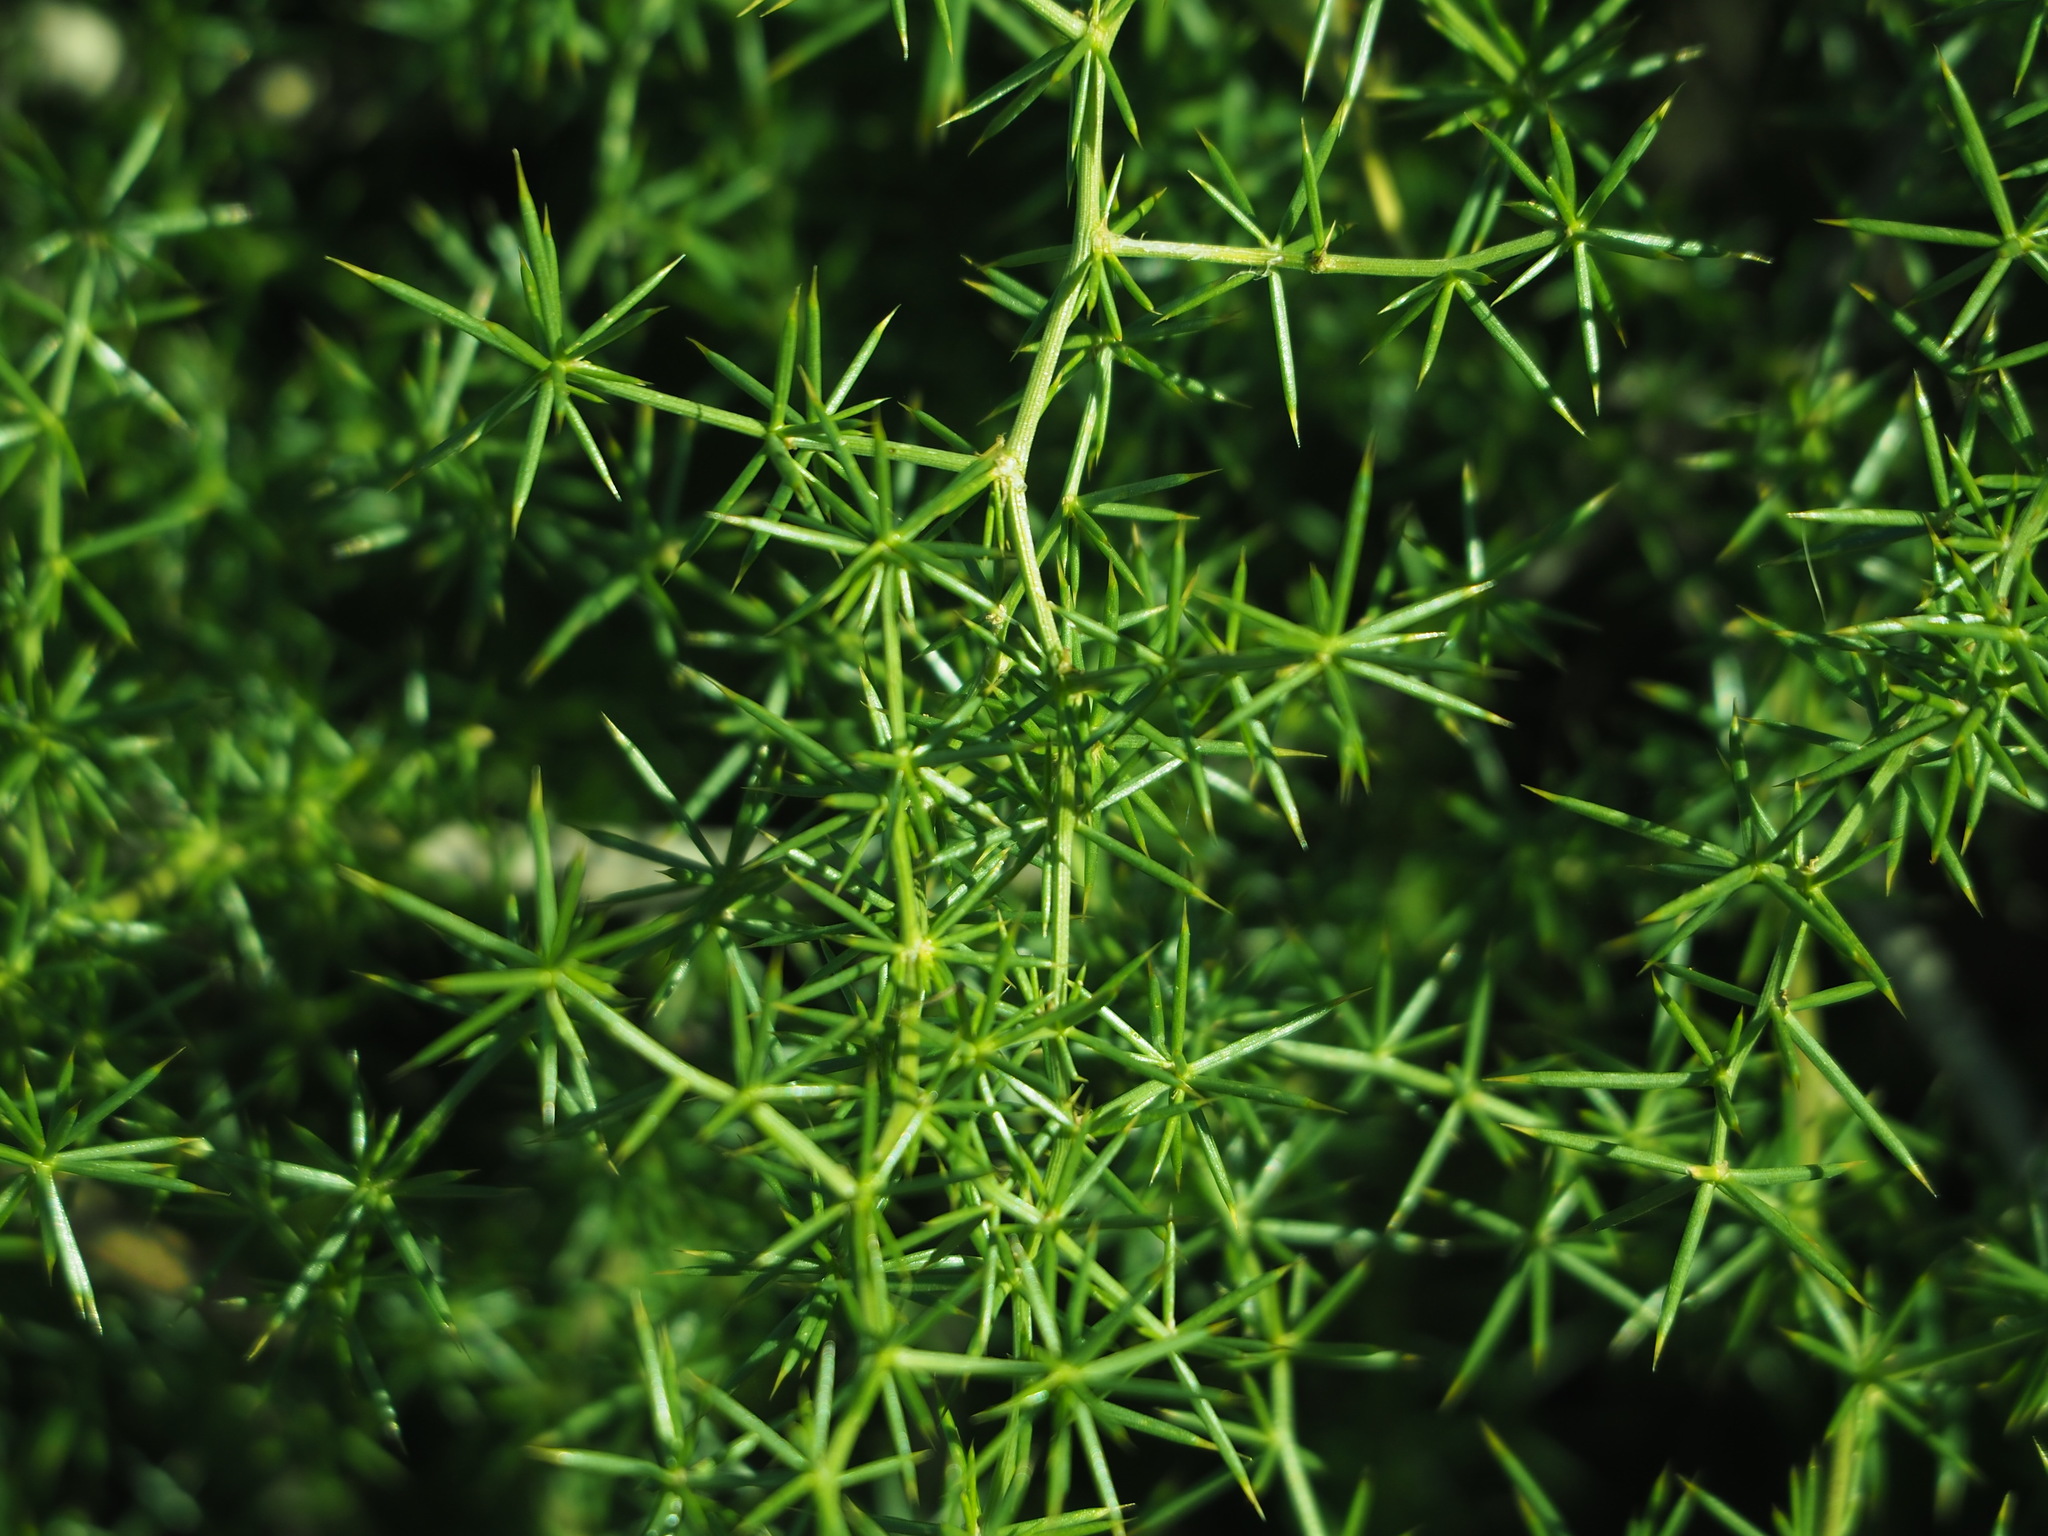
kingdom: Plantae
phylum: Tracheophyta
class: Liliopsida
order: Asparagales
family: Asparagaceae
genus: Asparagus
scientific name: Asparagus acutifolius
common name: Wild asparagus
